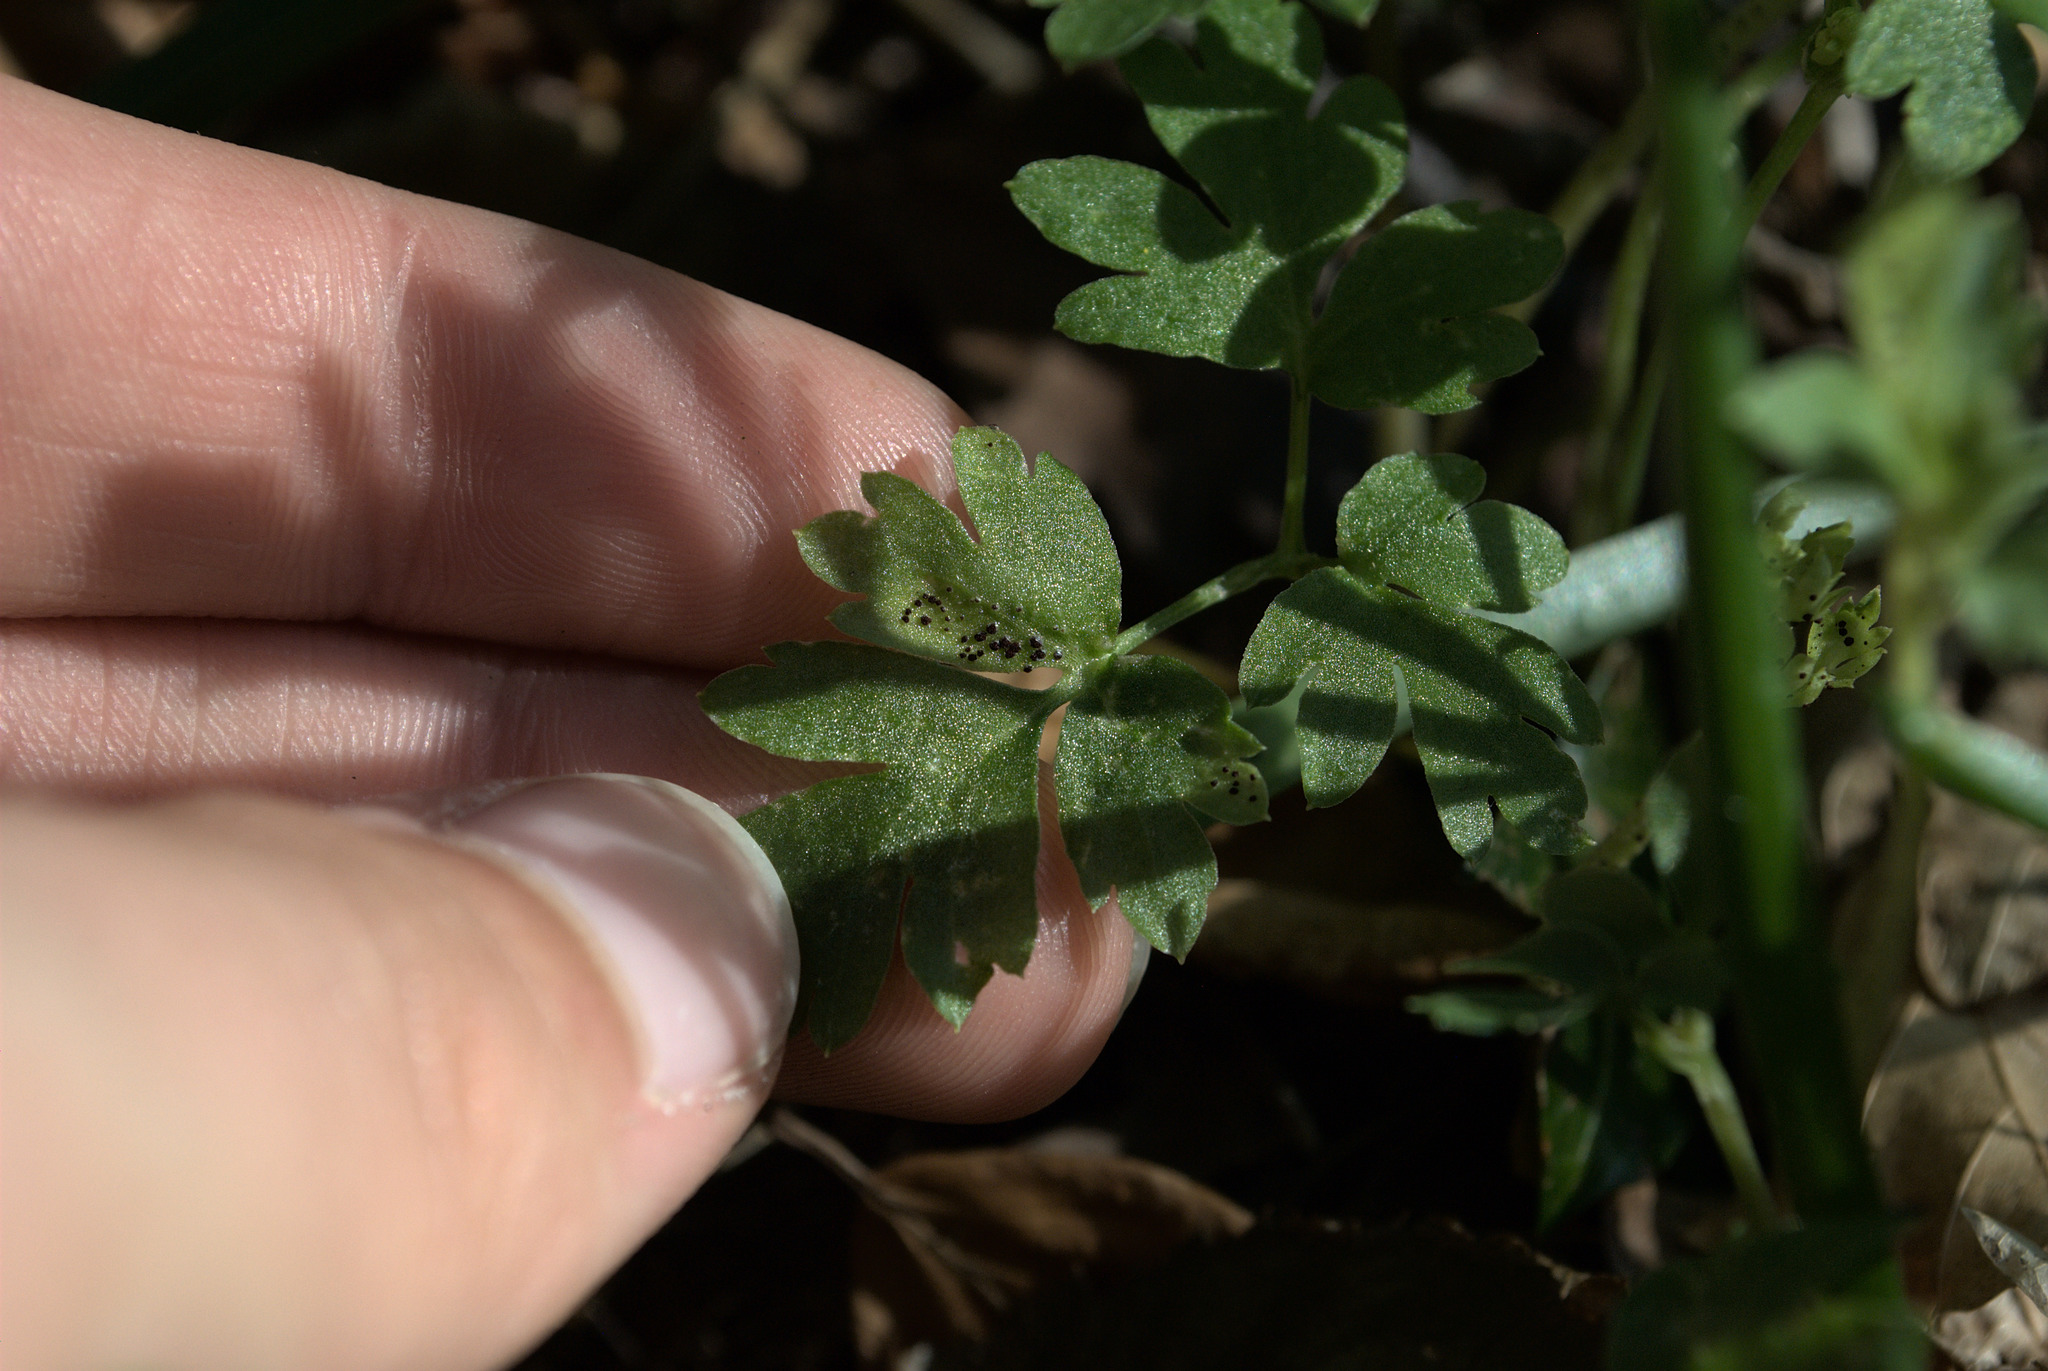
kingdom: Fungi
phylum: Basidiomycota
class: Pucciniomycetes
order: Pucciniales
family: Pucciniaceae
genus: Puccinia
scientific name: Puccinia adoxae
